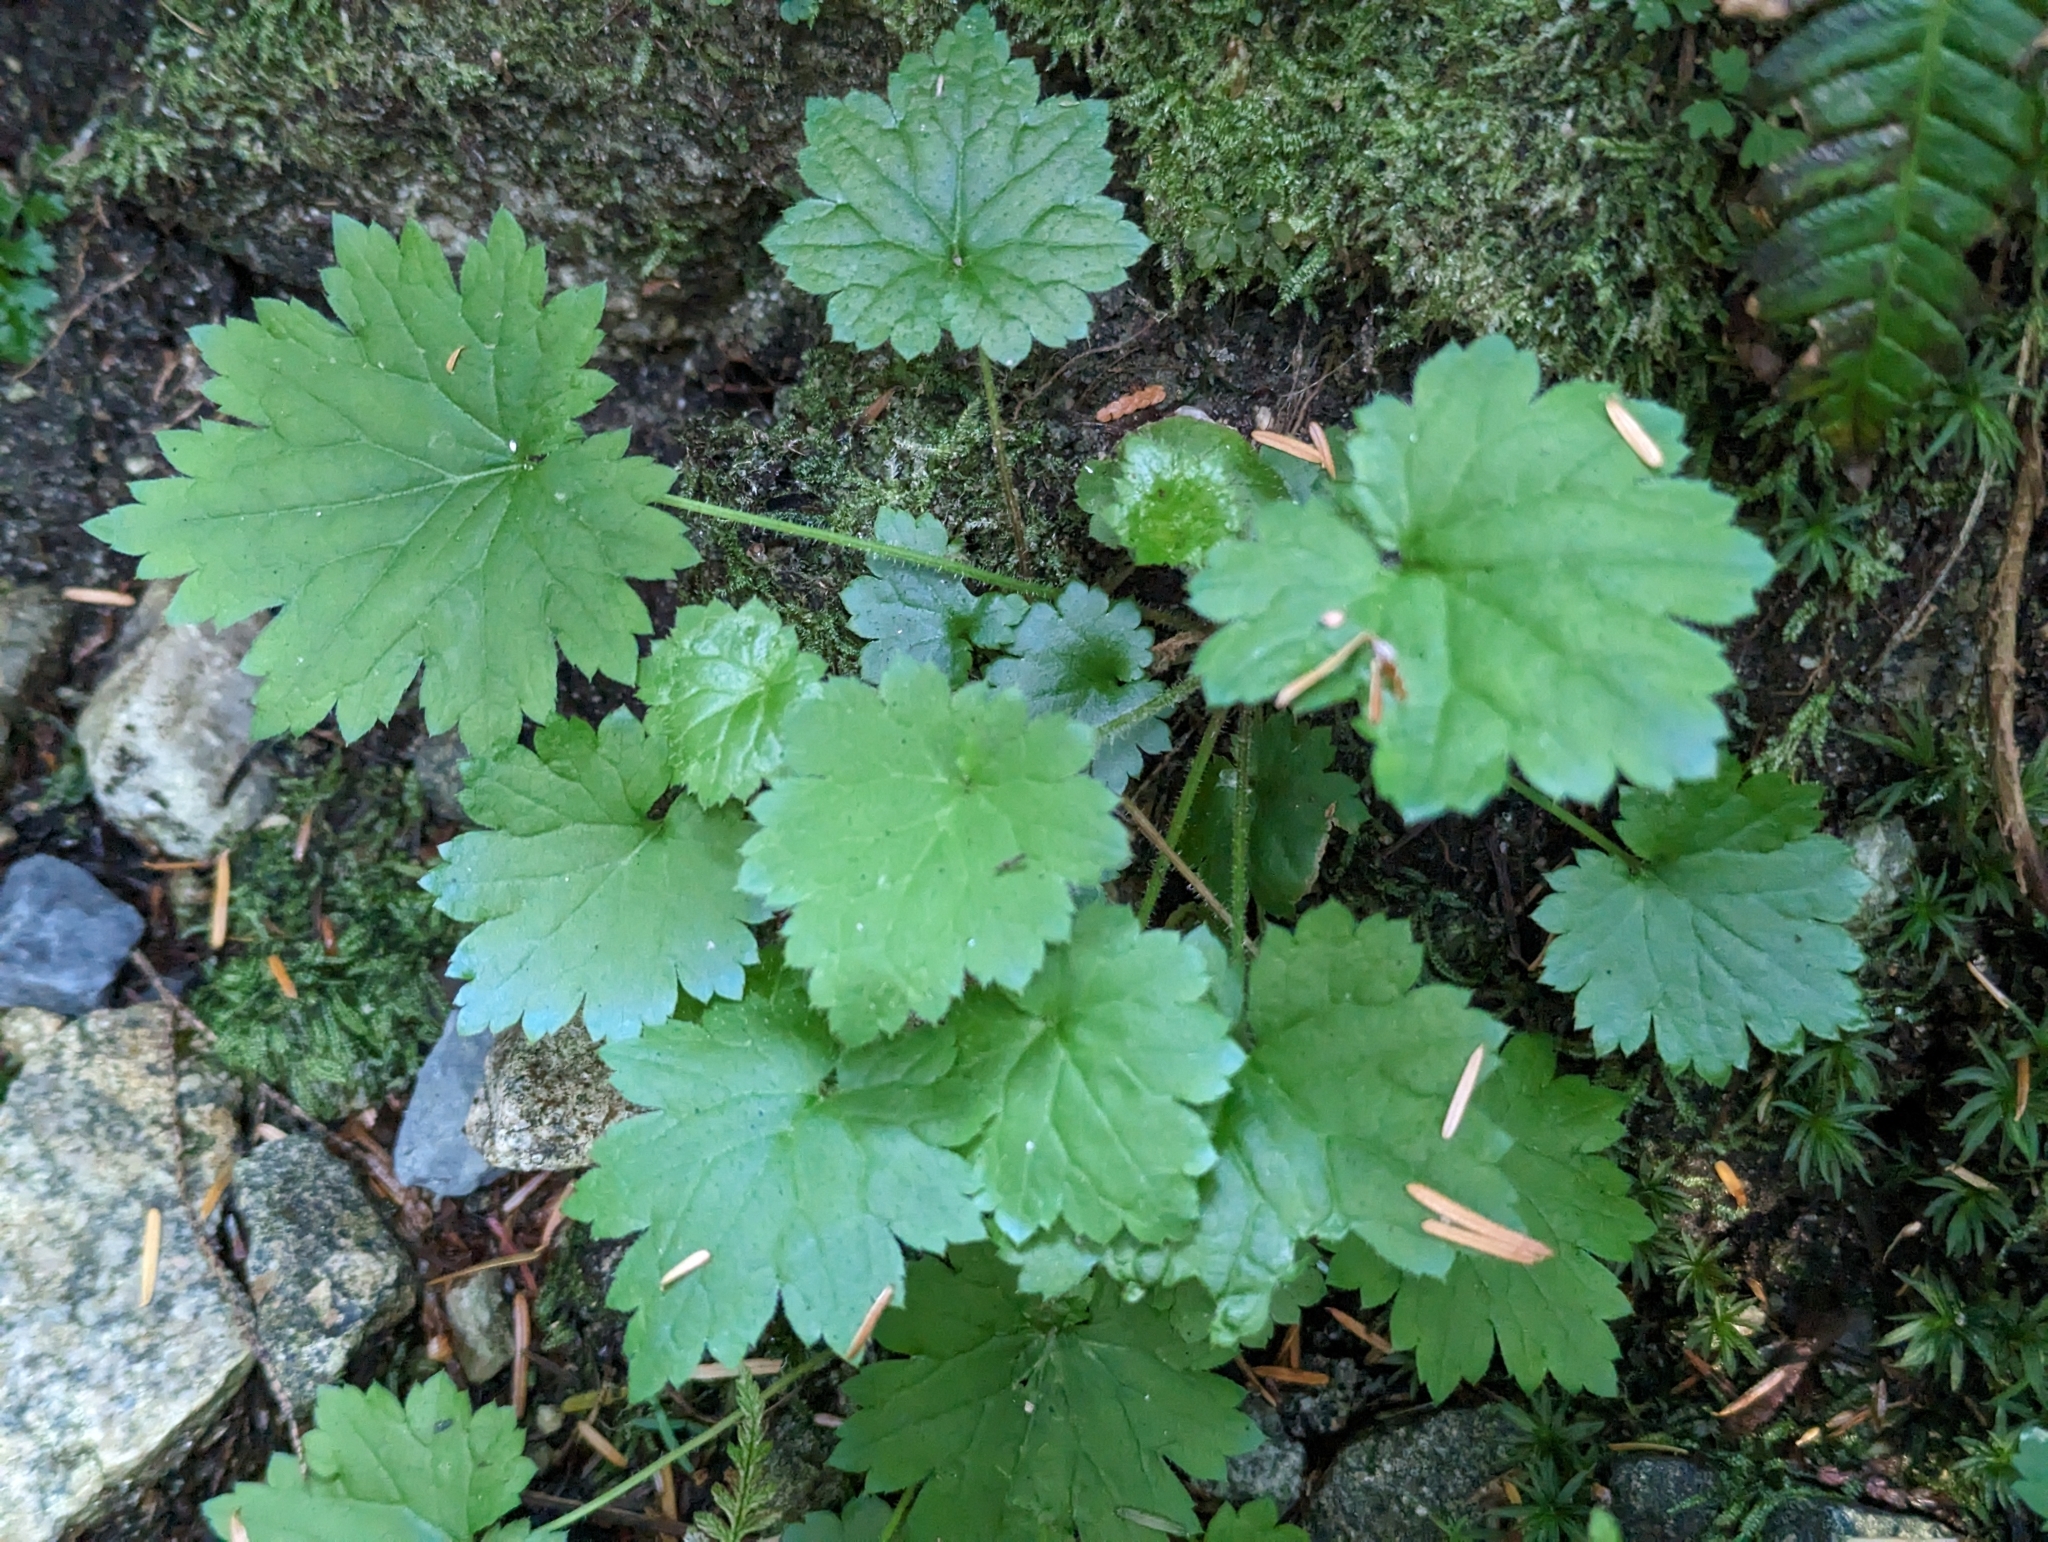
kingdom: Plantae
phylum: Tracheophyta
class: Magnoliopsida
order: Saxifragales
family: Saxifragaceae
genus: Boykinia
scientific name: Boykinia occidentalis
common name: Coast boykinia
